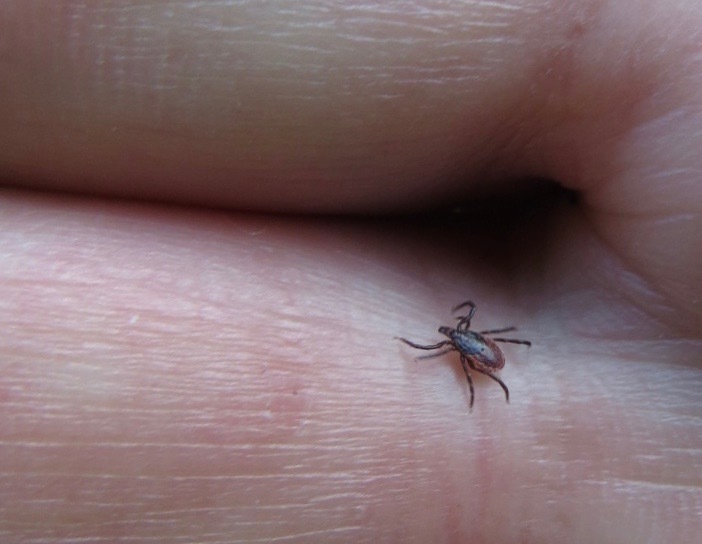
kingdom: Animalia
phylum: Arthropoda
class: Arachnida
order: Ixodida
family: Ixodidae
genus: Ixodes
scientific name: Ixodes pacificus
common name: California black-legged tick
